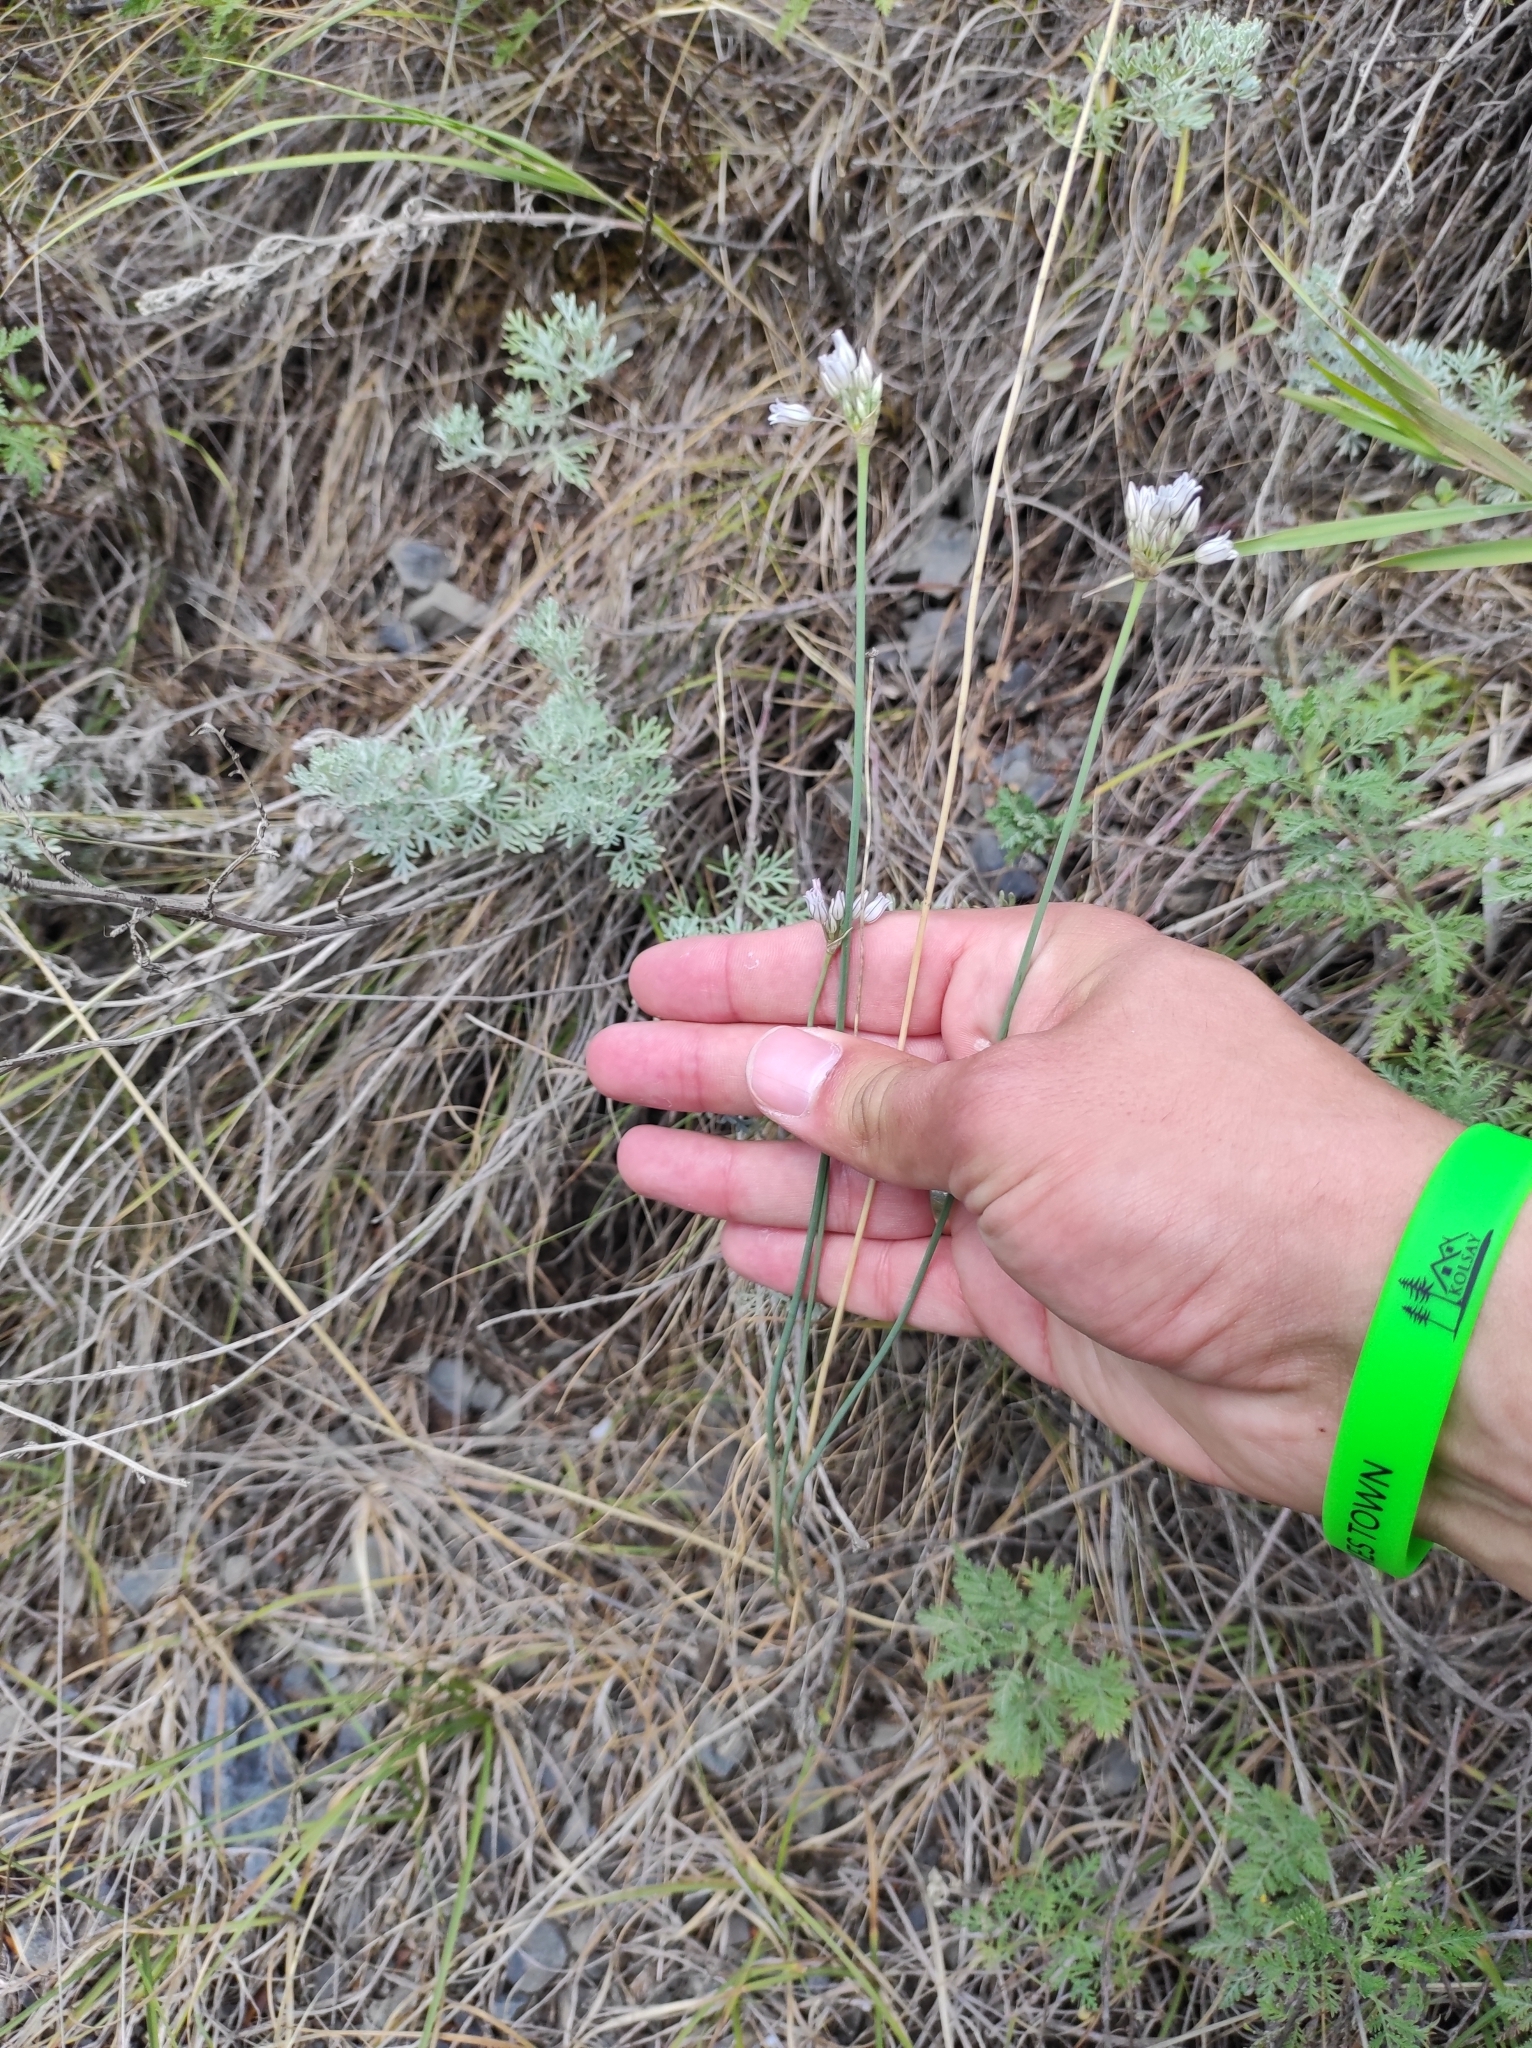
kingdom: Plantae
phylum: Tracheophyta
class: Liliopsida
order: Asparagales
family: Amaryllidaceae
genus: Allium
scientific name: Allium korolkowii
